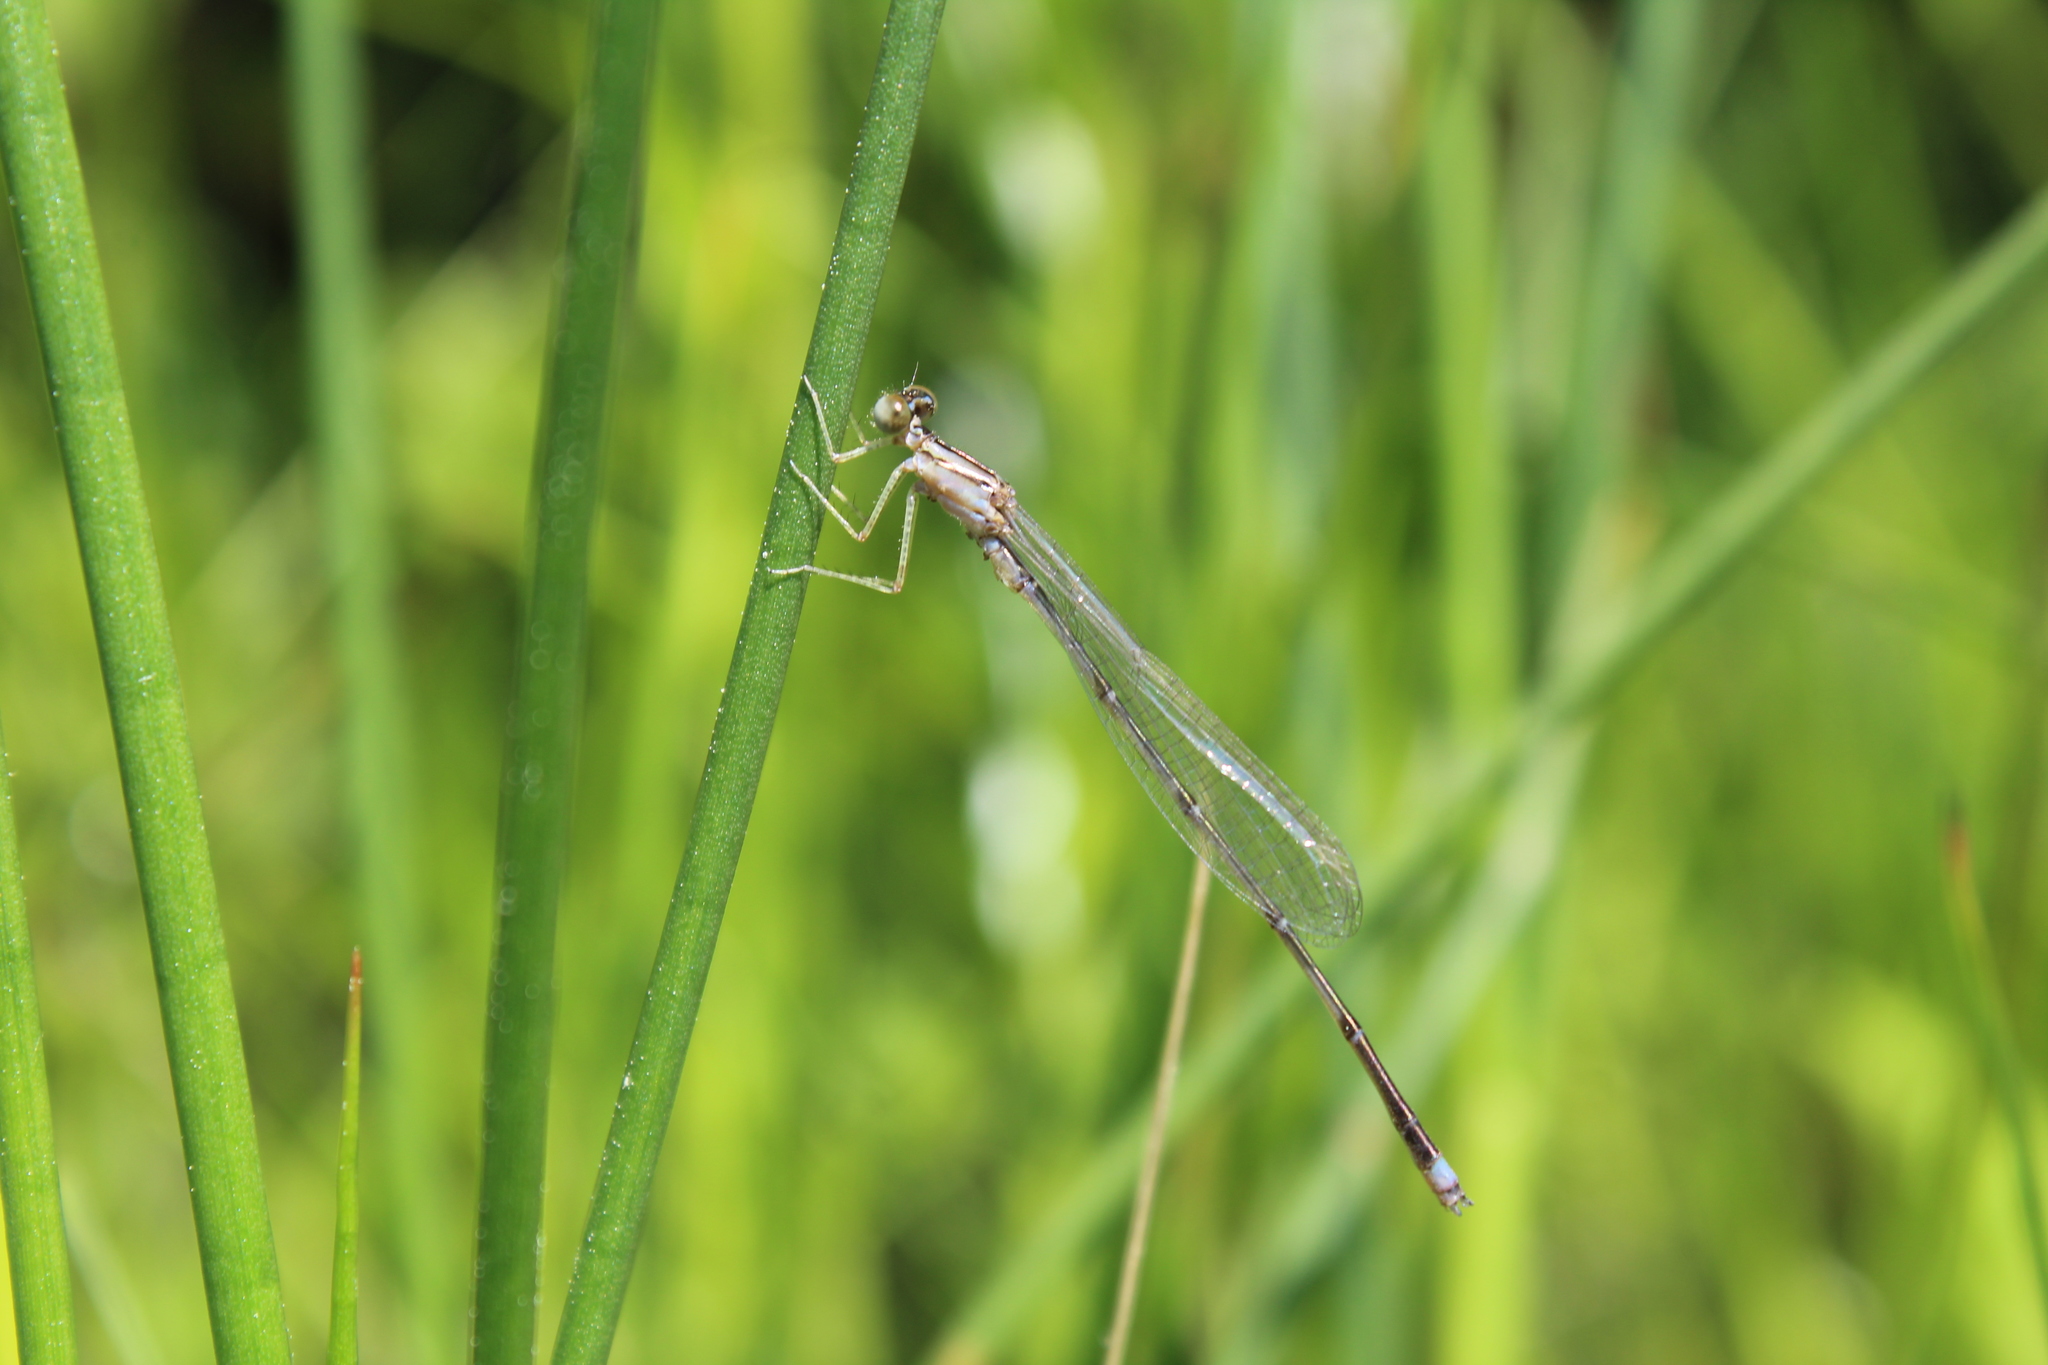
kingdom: Animalia
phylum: Arthropoda
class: Insecta
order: Odonata
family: Coenagrionidae
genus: Enallagma
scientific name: Enallagma vesperum
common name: Vesper bluet
